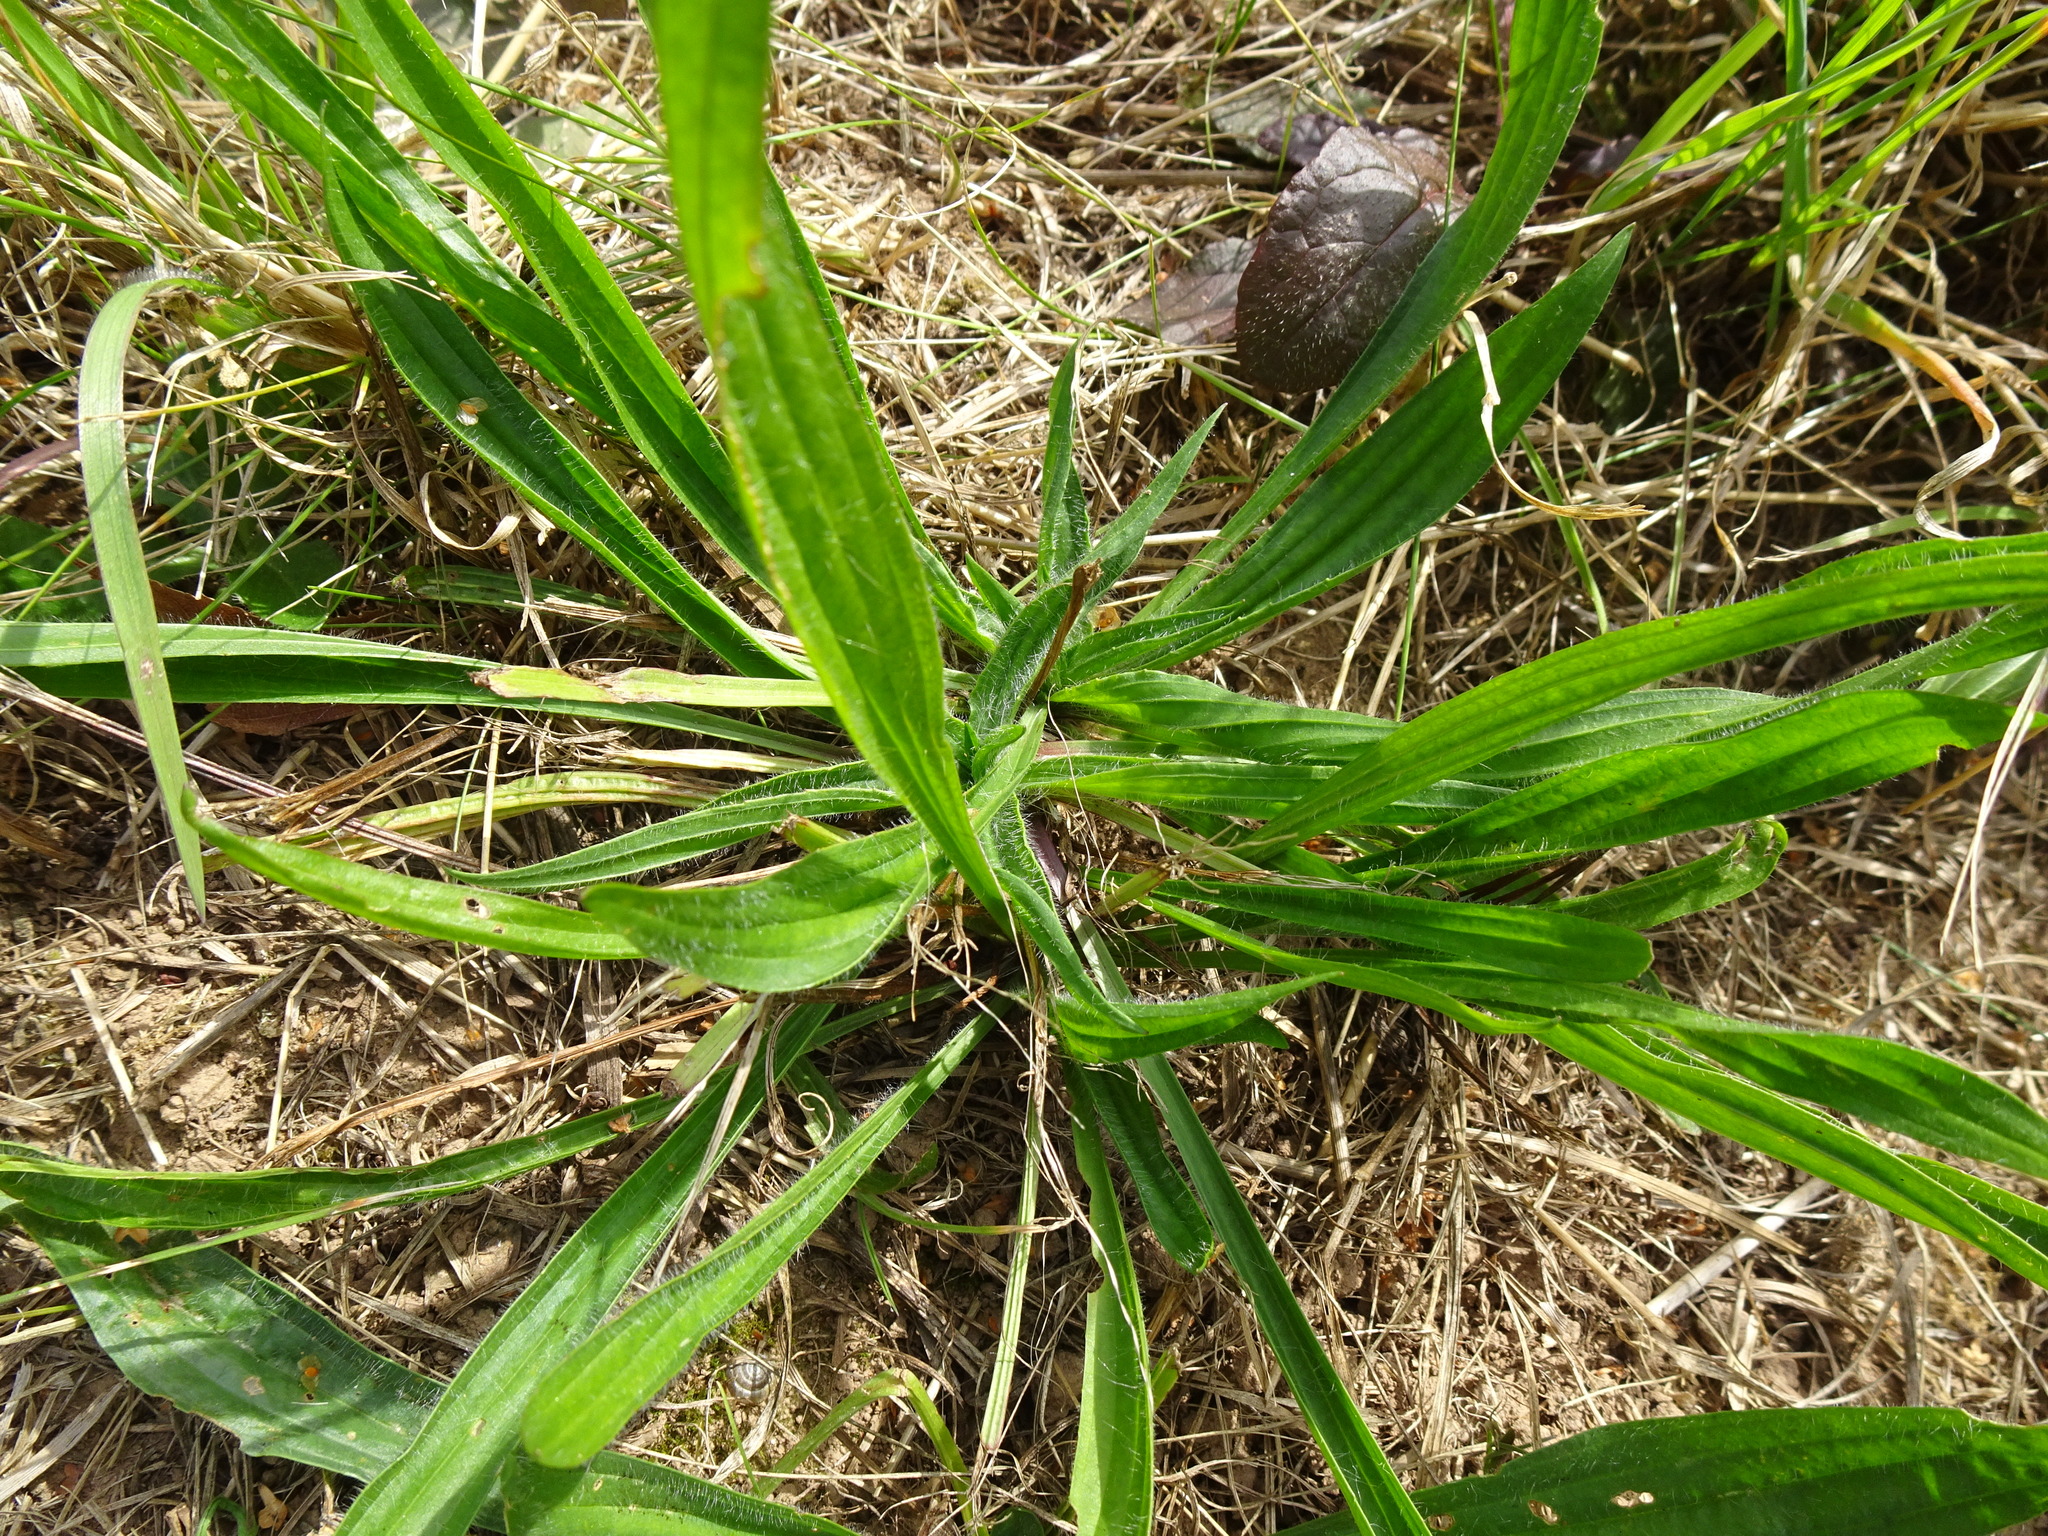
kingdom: Plantae
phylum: Tracheophyta
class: Magnoliopsida
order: Lamiales
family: Plantaginaceae
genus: Plantago
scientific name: Plantago lanceolata
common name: Ribwort plantain
